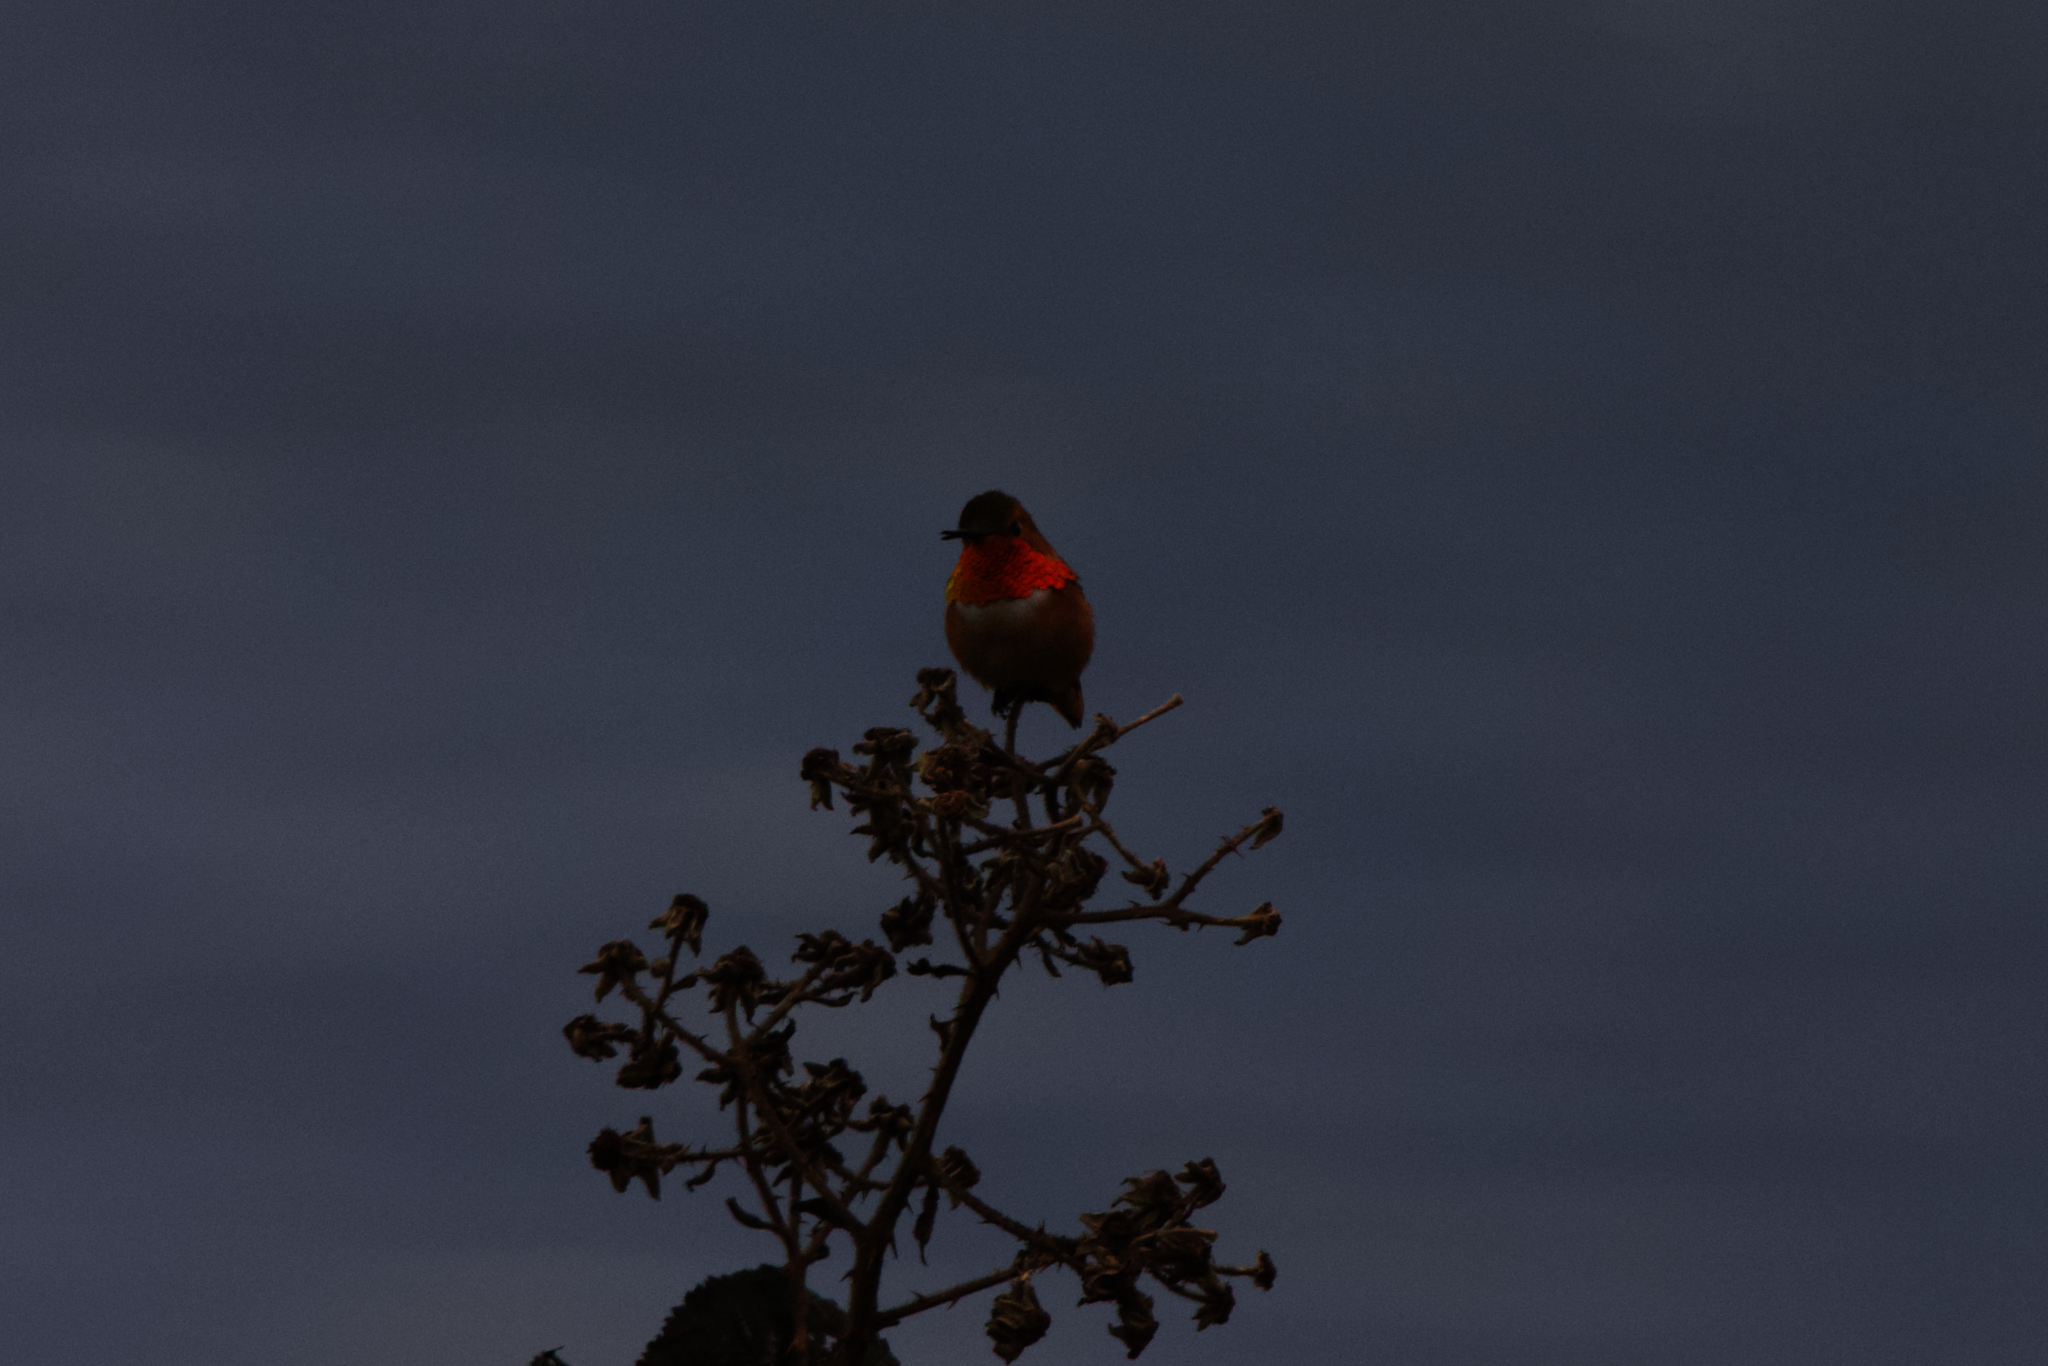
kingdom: Animalia
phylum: Chordata
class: Aves
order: Apodiformes
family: Trochilidae
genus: Selasphorus
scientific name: Selasphorus sasin
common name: Allen's hummingbird
